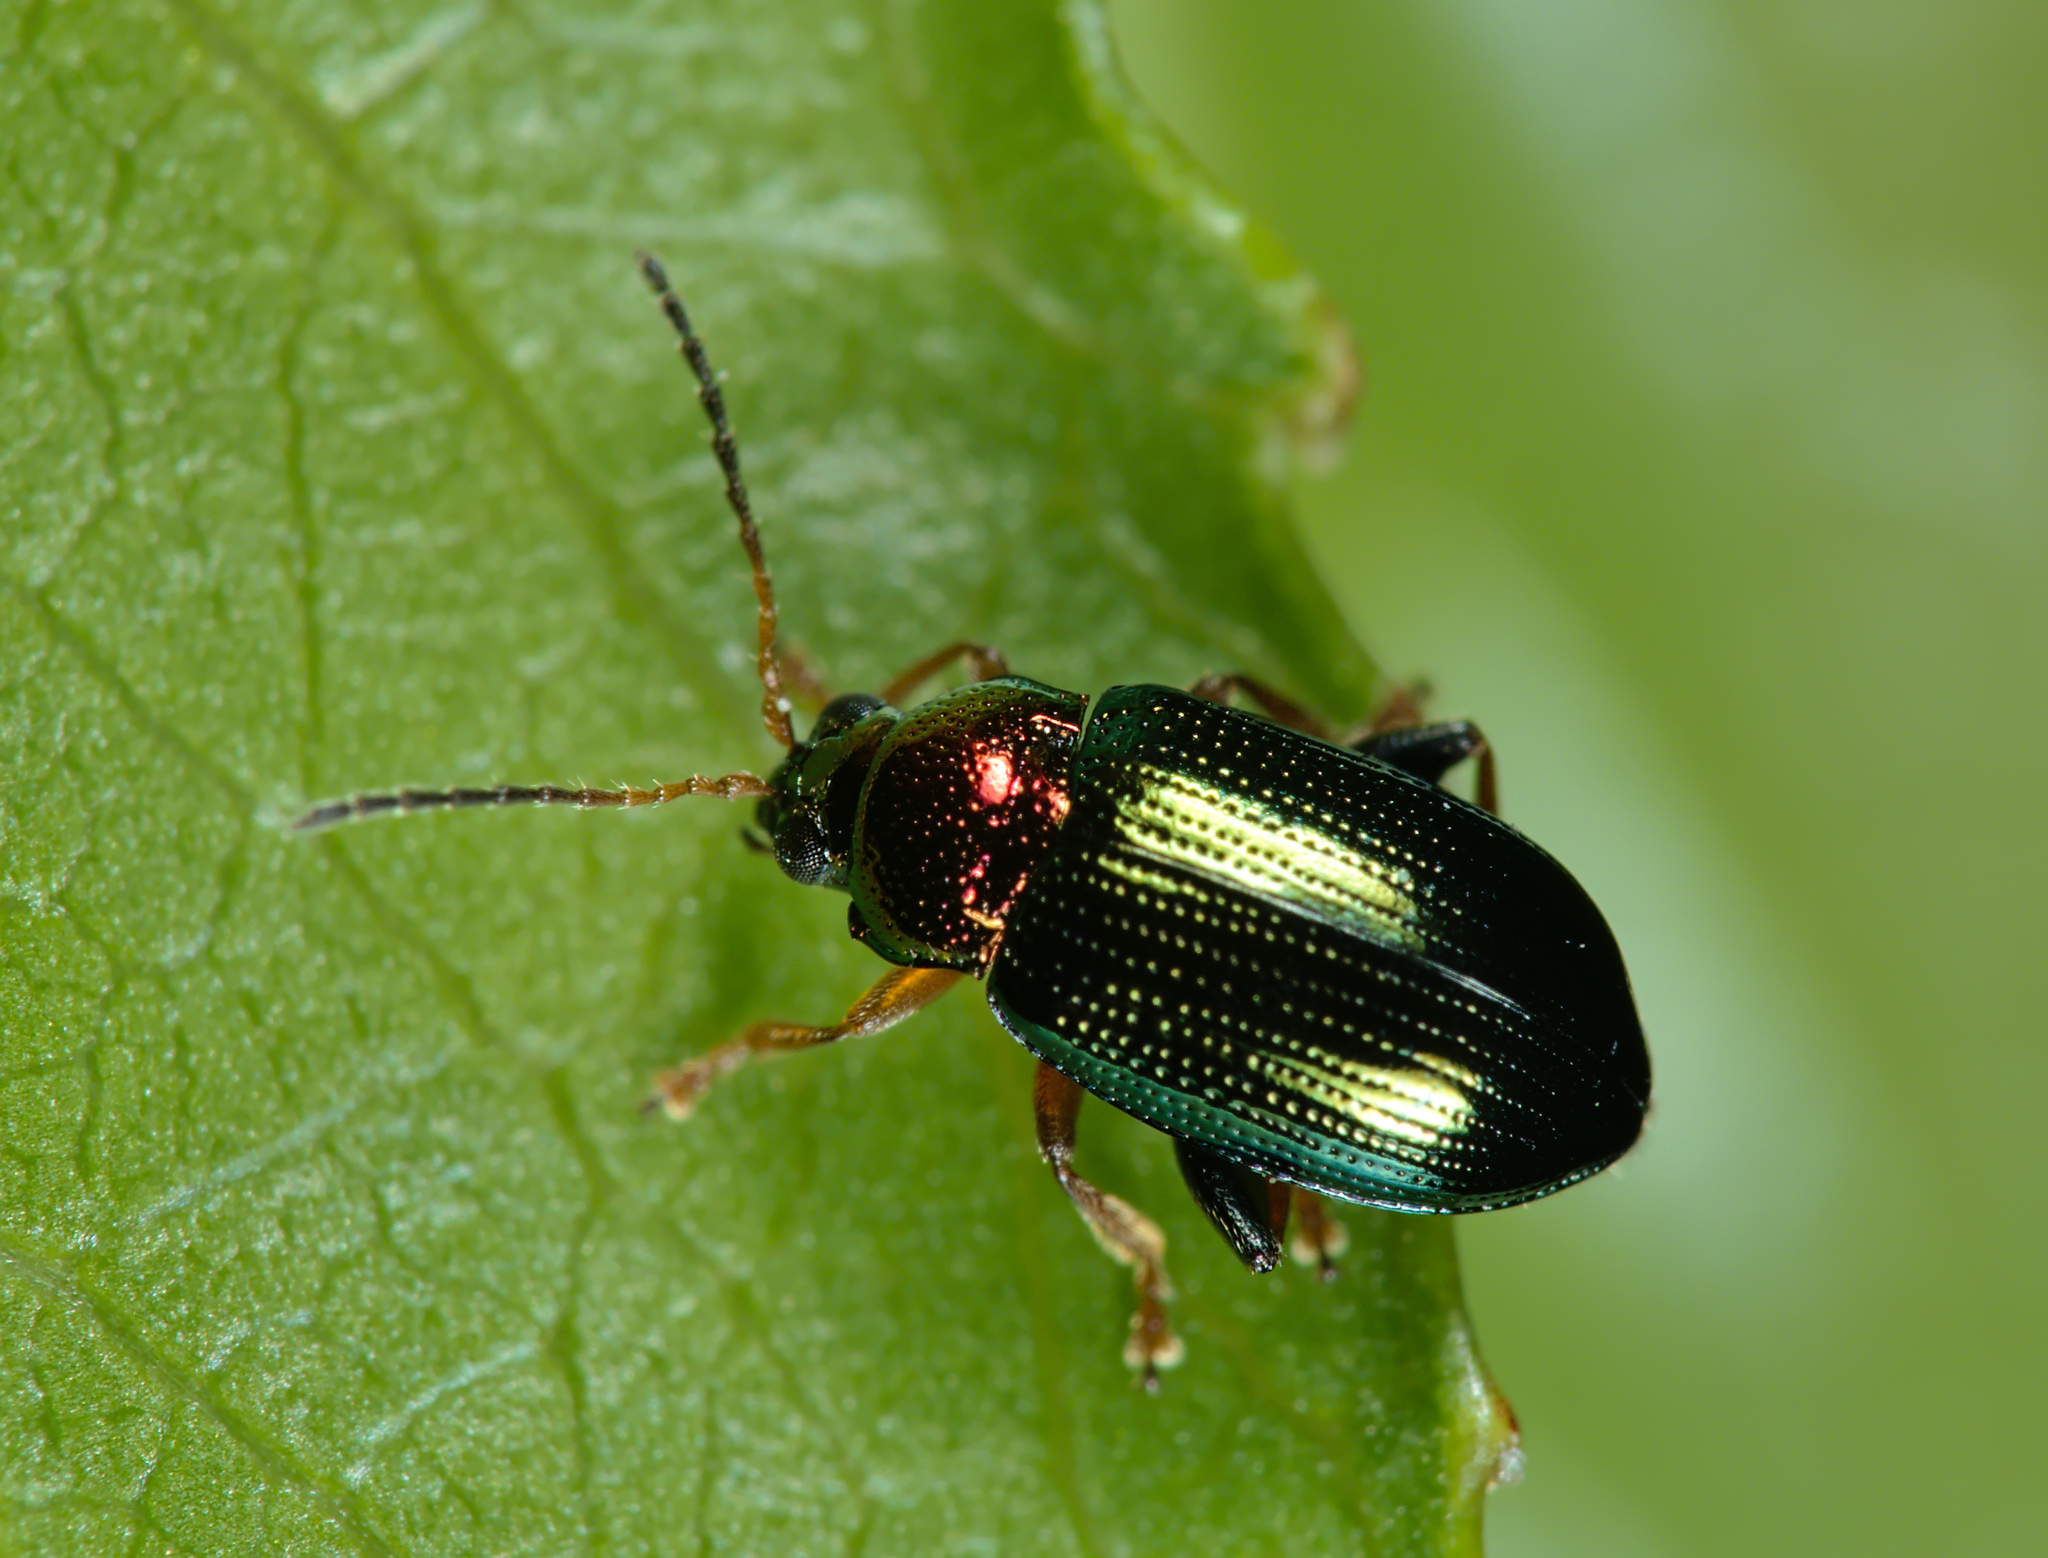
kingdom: Animalia
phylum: Arthropoda
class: Insecta
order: Coleoptera
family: Chrysomelidae
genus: Crepidodera
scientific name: Crepidodera aurata
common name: Willow flea beetle
